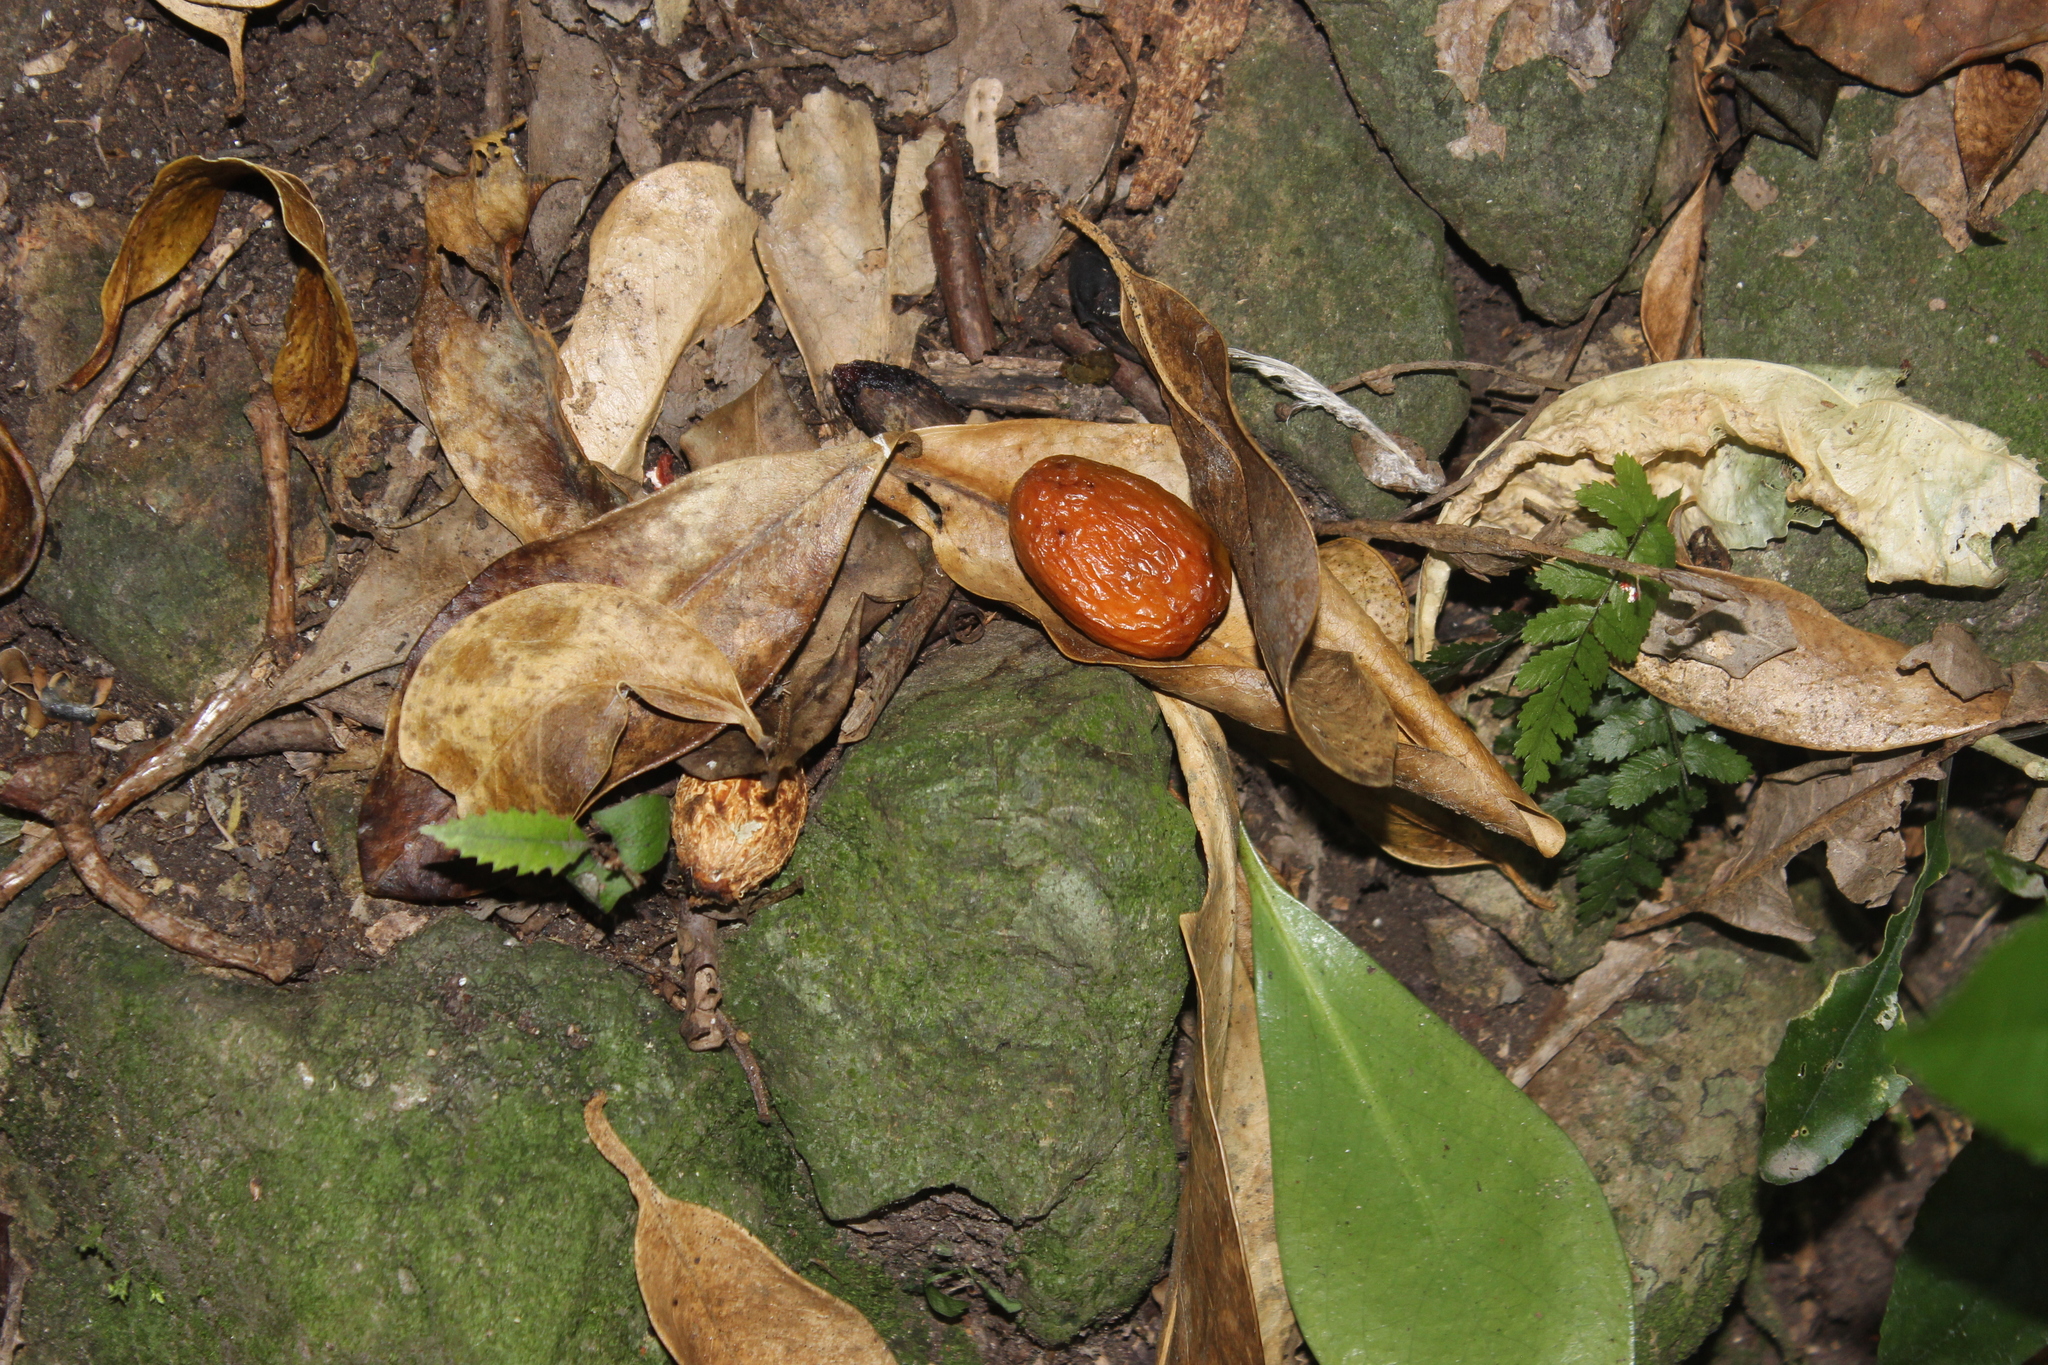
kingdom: Plantae
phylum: Tracheophyta
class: Magnoliopsida
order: Cucurbitales
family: Corynocarpaceae
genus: Corynocarpus
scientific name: Corynocarpus laevigatus
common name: New zealand laurel
